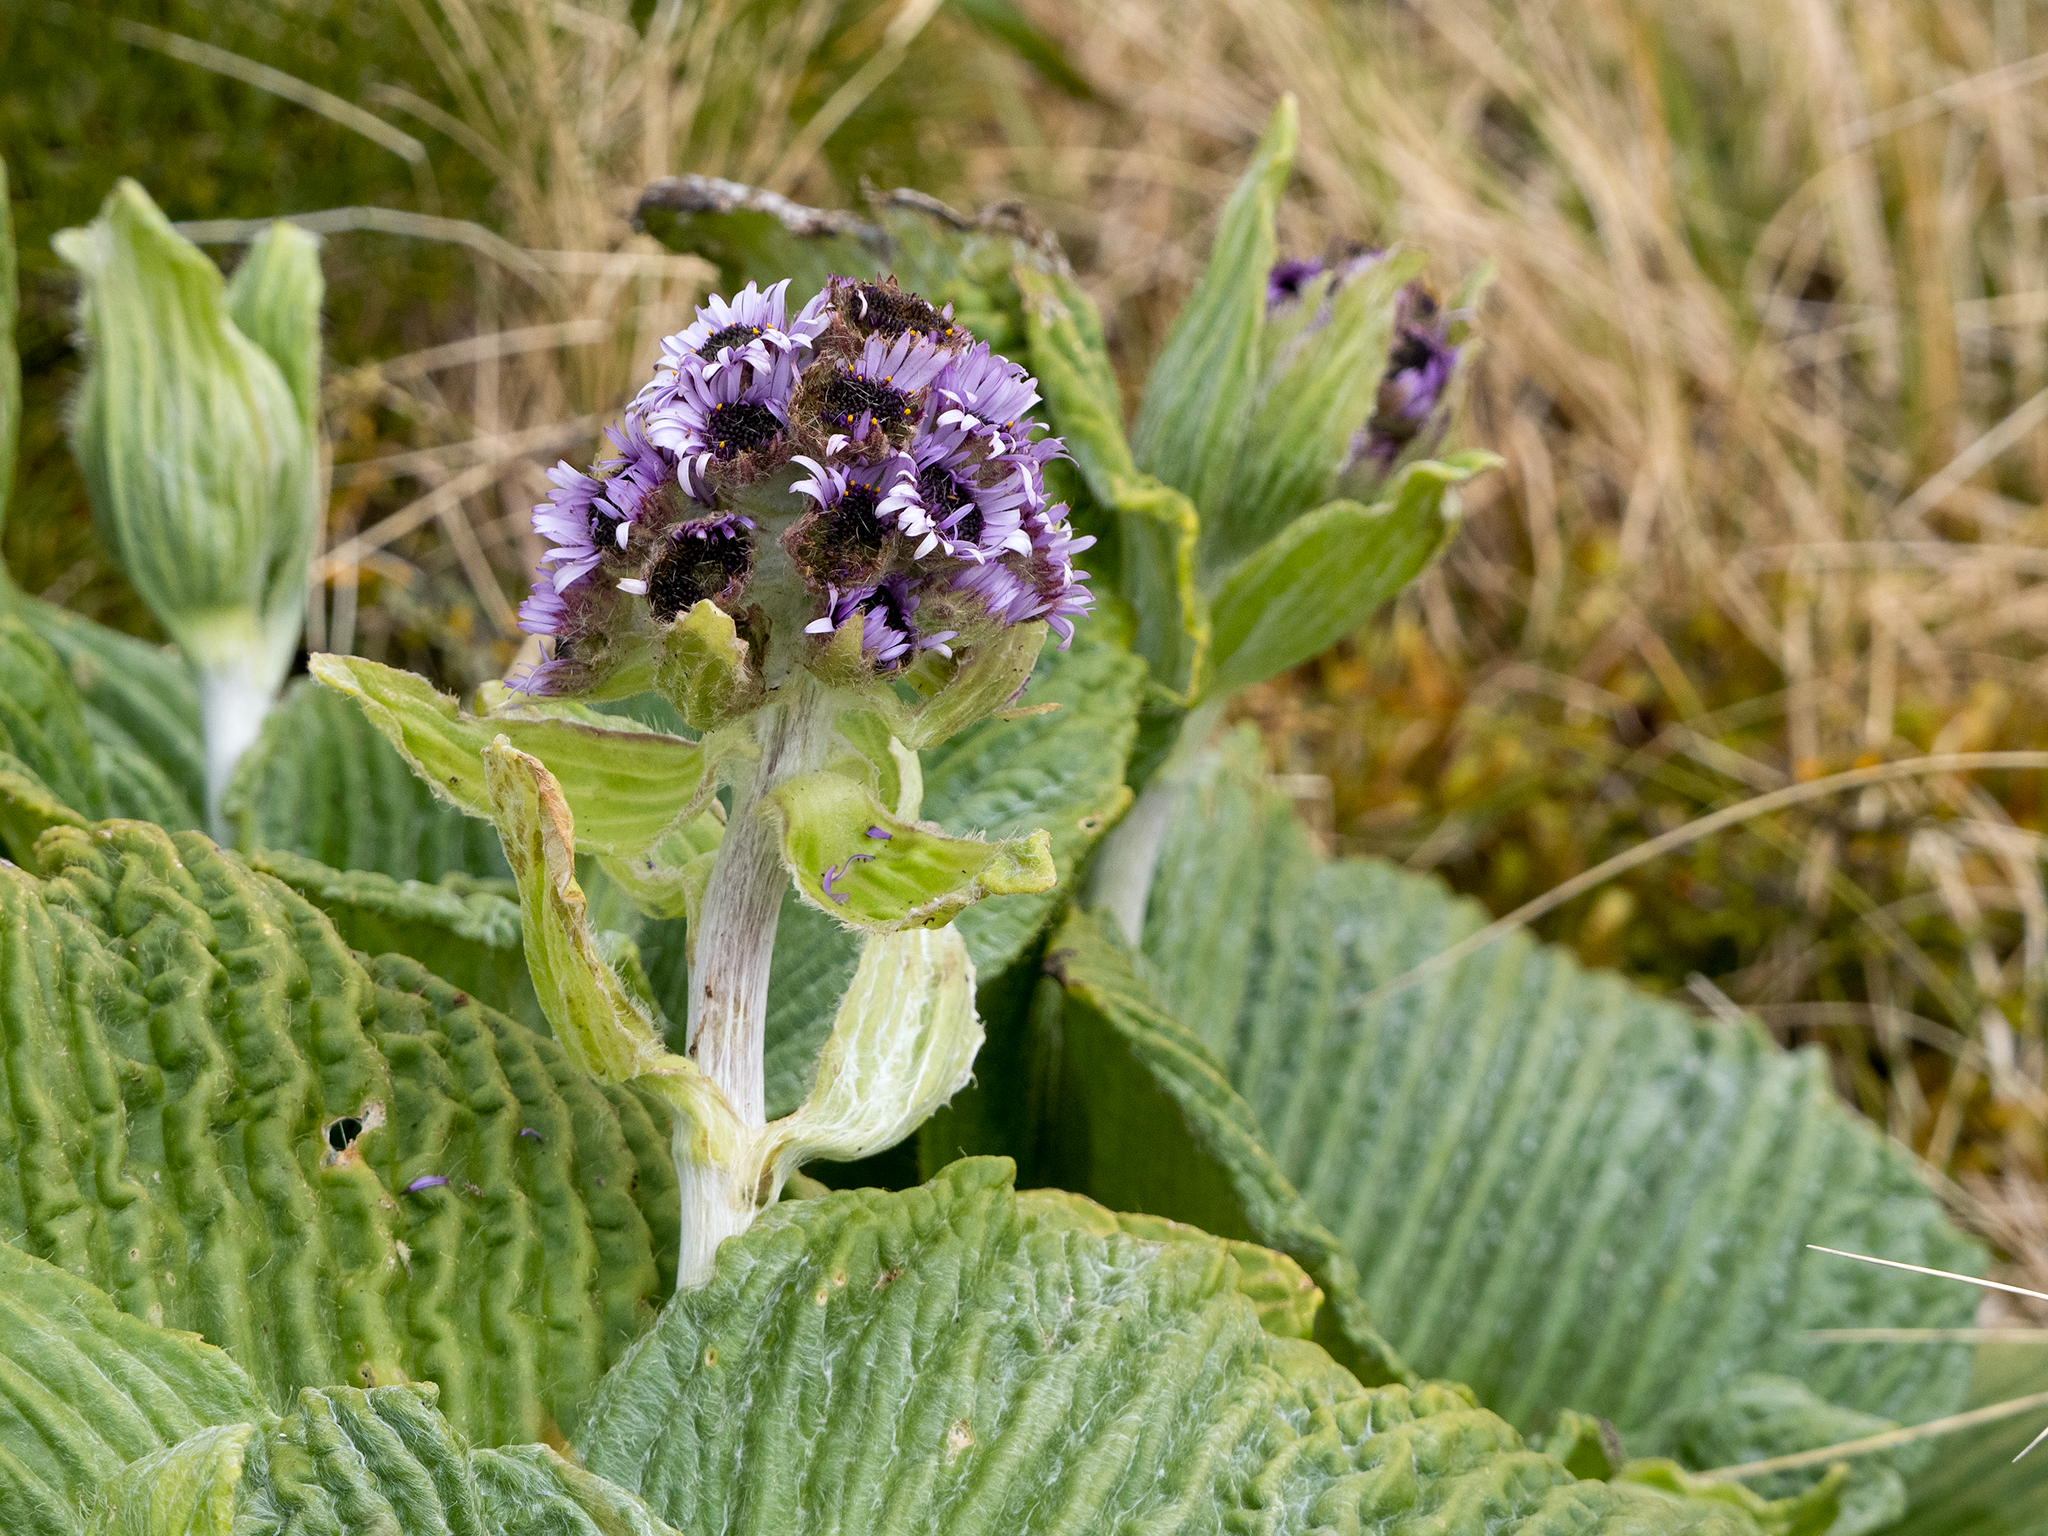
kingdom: Plantae
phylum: Tracheophyta
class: Magnoliopsida
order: Asterales
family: Asteraceae
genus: Pleurophyllum
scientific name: Pleurophyllum speciosum
